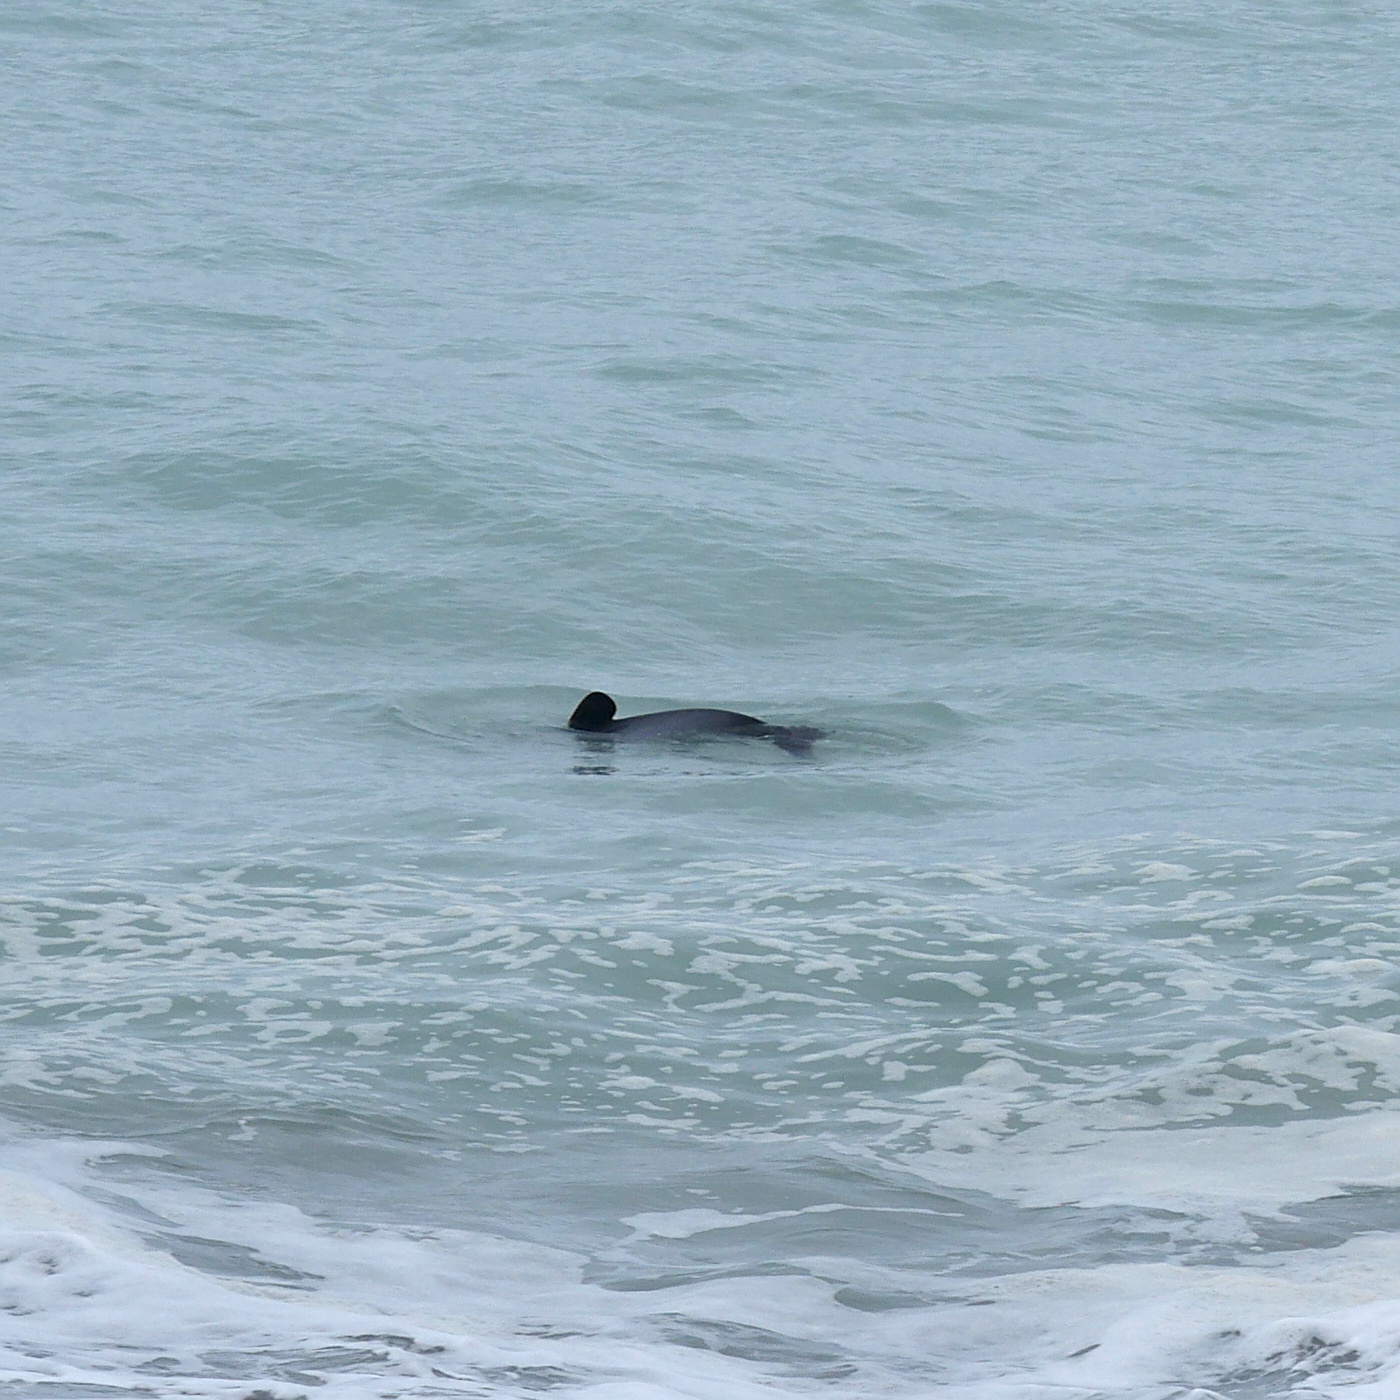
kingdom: Animalia
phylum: Chordata
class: Mammalia
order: Cetacea
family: Delphinidae
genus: Cephalorhynchus
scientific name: Cephalorhynchus hectori
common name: Hector's dolphin
